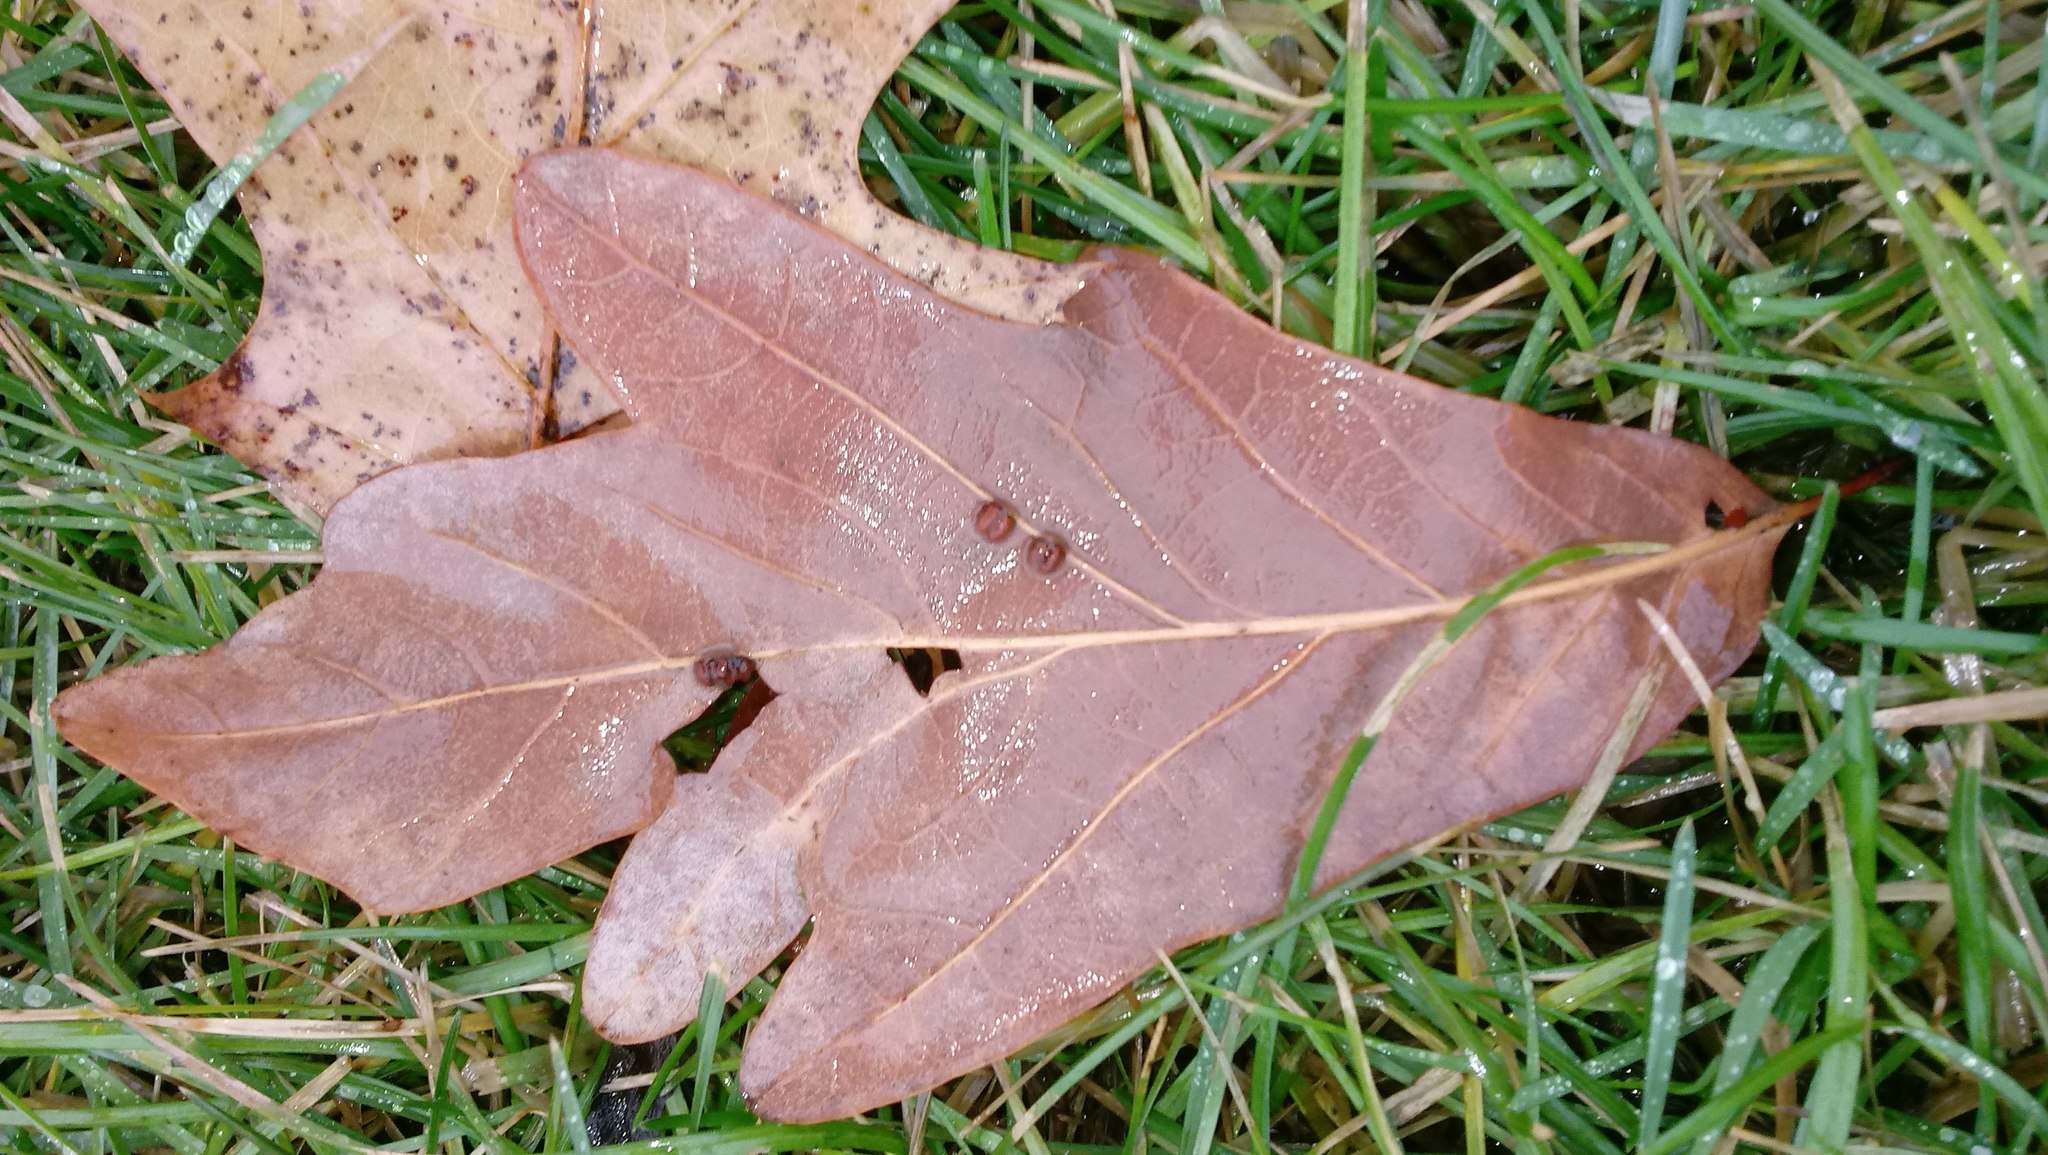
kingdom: Animalia
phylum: Arthropoda
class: Insecta
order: Hymenoptera
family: Cynipidae
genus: Andricus
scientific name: Andricus Druon ignotum
